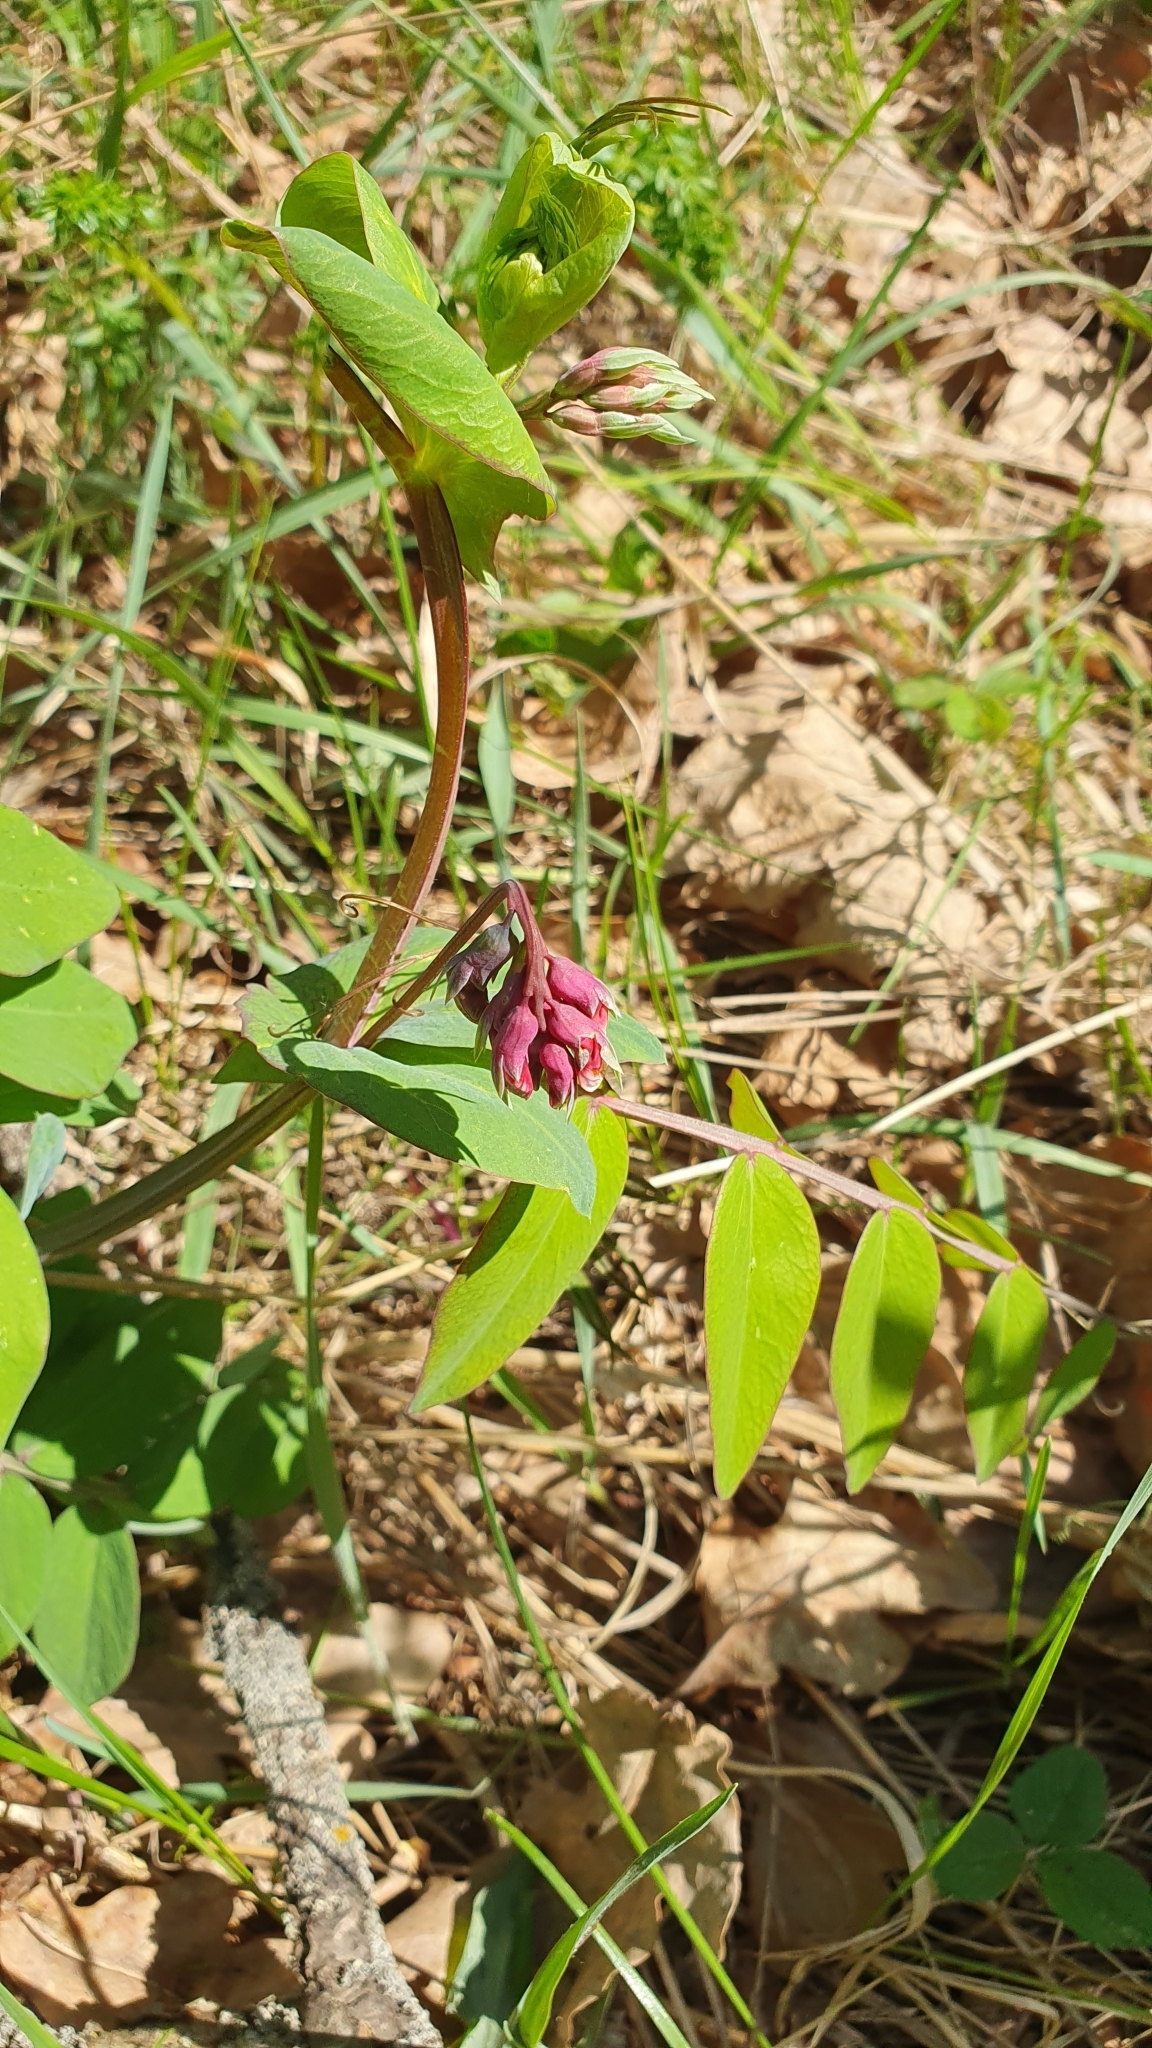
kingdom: Plantae
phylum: Tracheophyta
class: Magnoliopsida
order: Fabales
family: Fabaceae
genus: Lathyrus
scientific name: Lathyrus pisiformis
